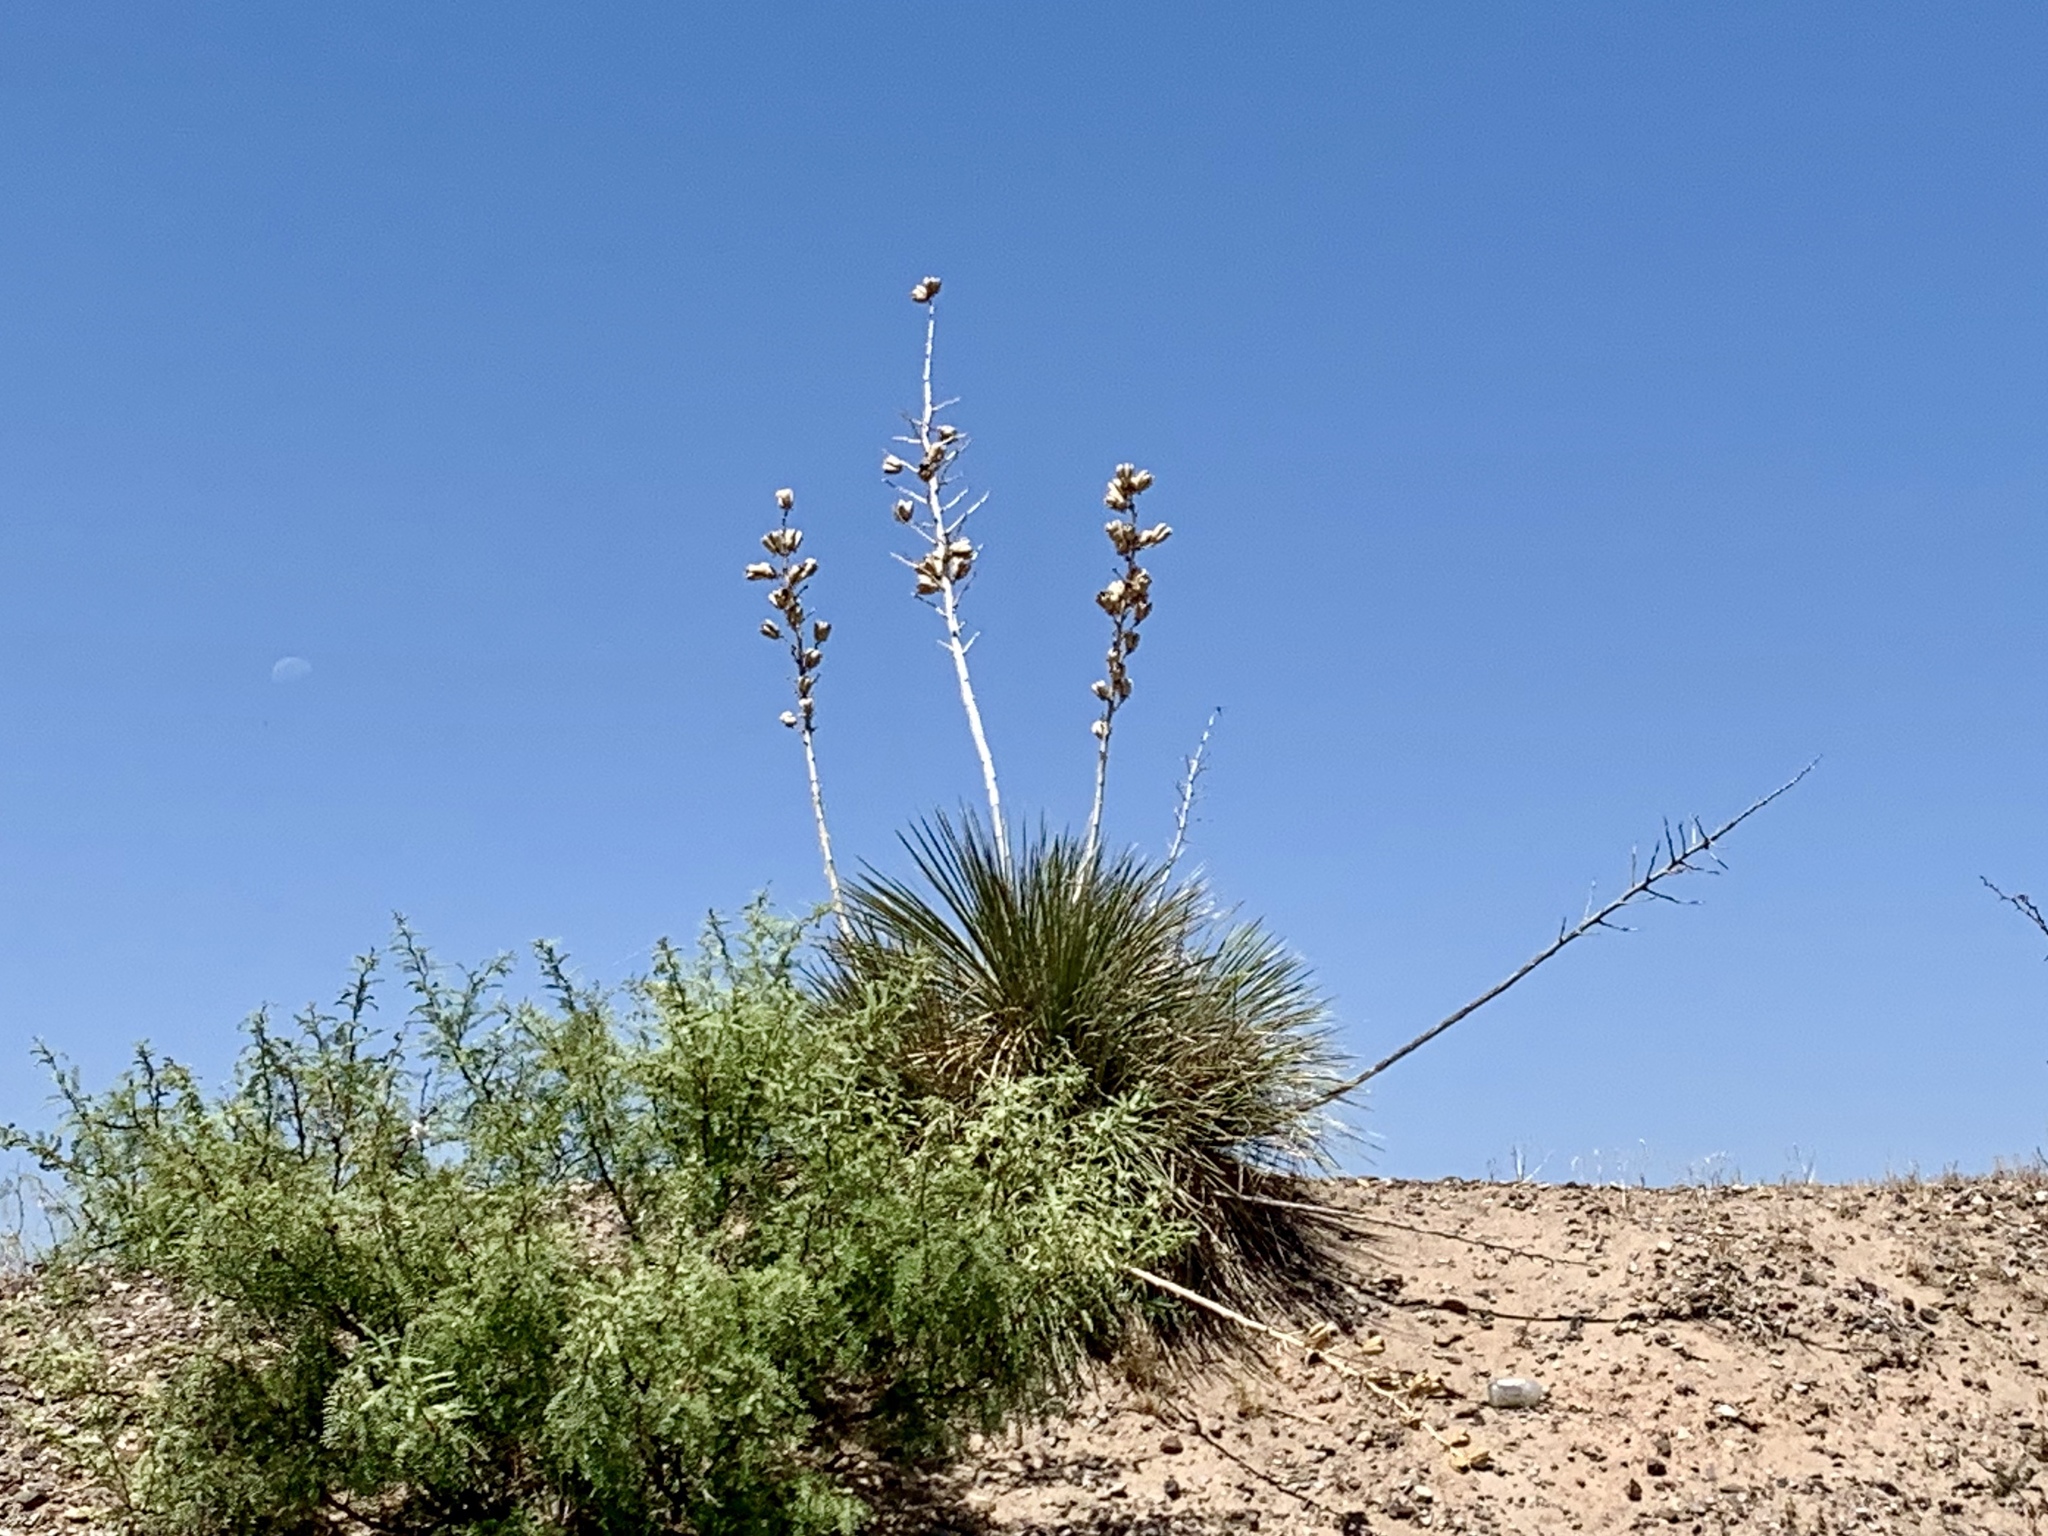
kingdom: Plantae
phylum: Tracheophyta
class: Liliopsida
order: Asparagales
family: Asparagaceae
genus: Yucca
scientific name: Yucca elata
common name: Palmella
